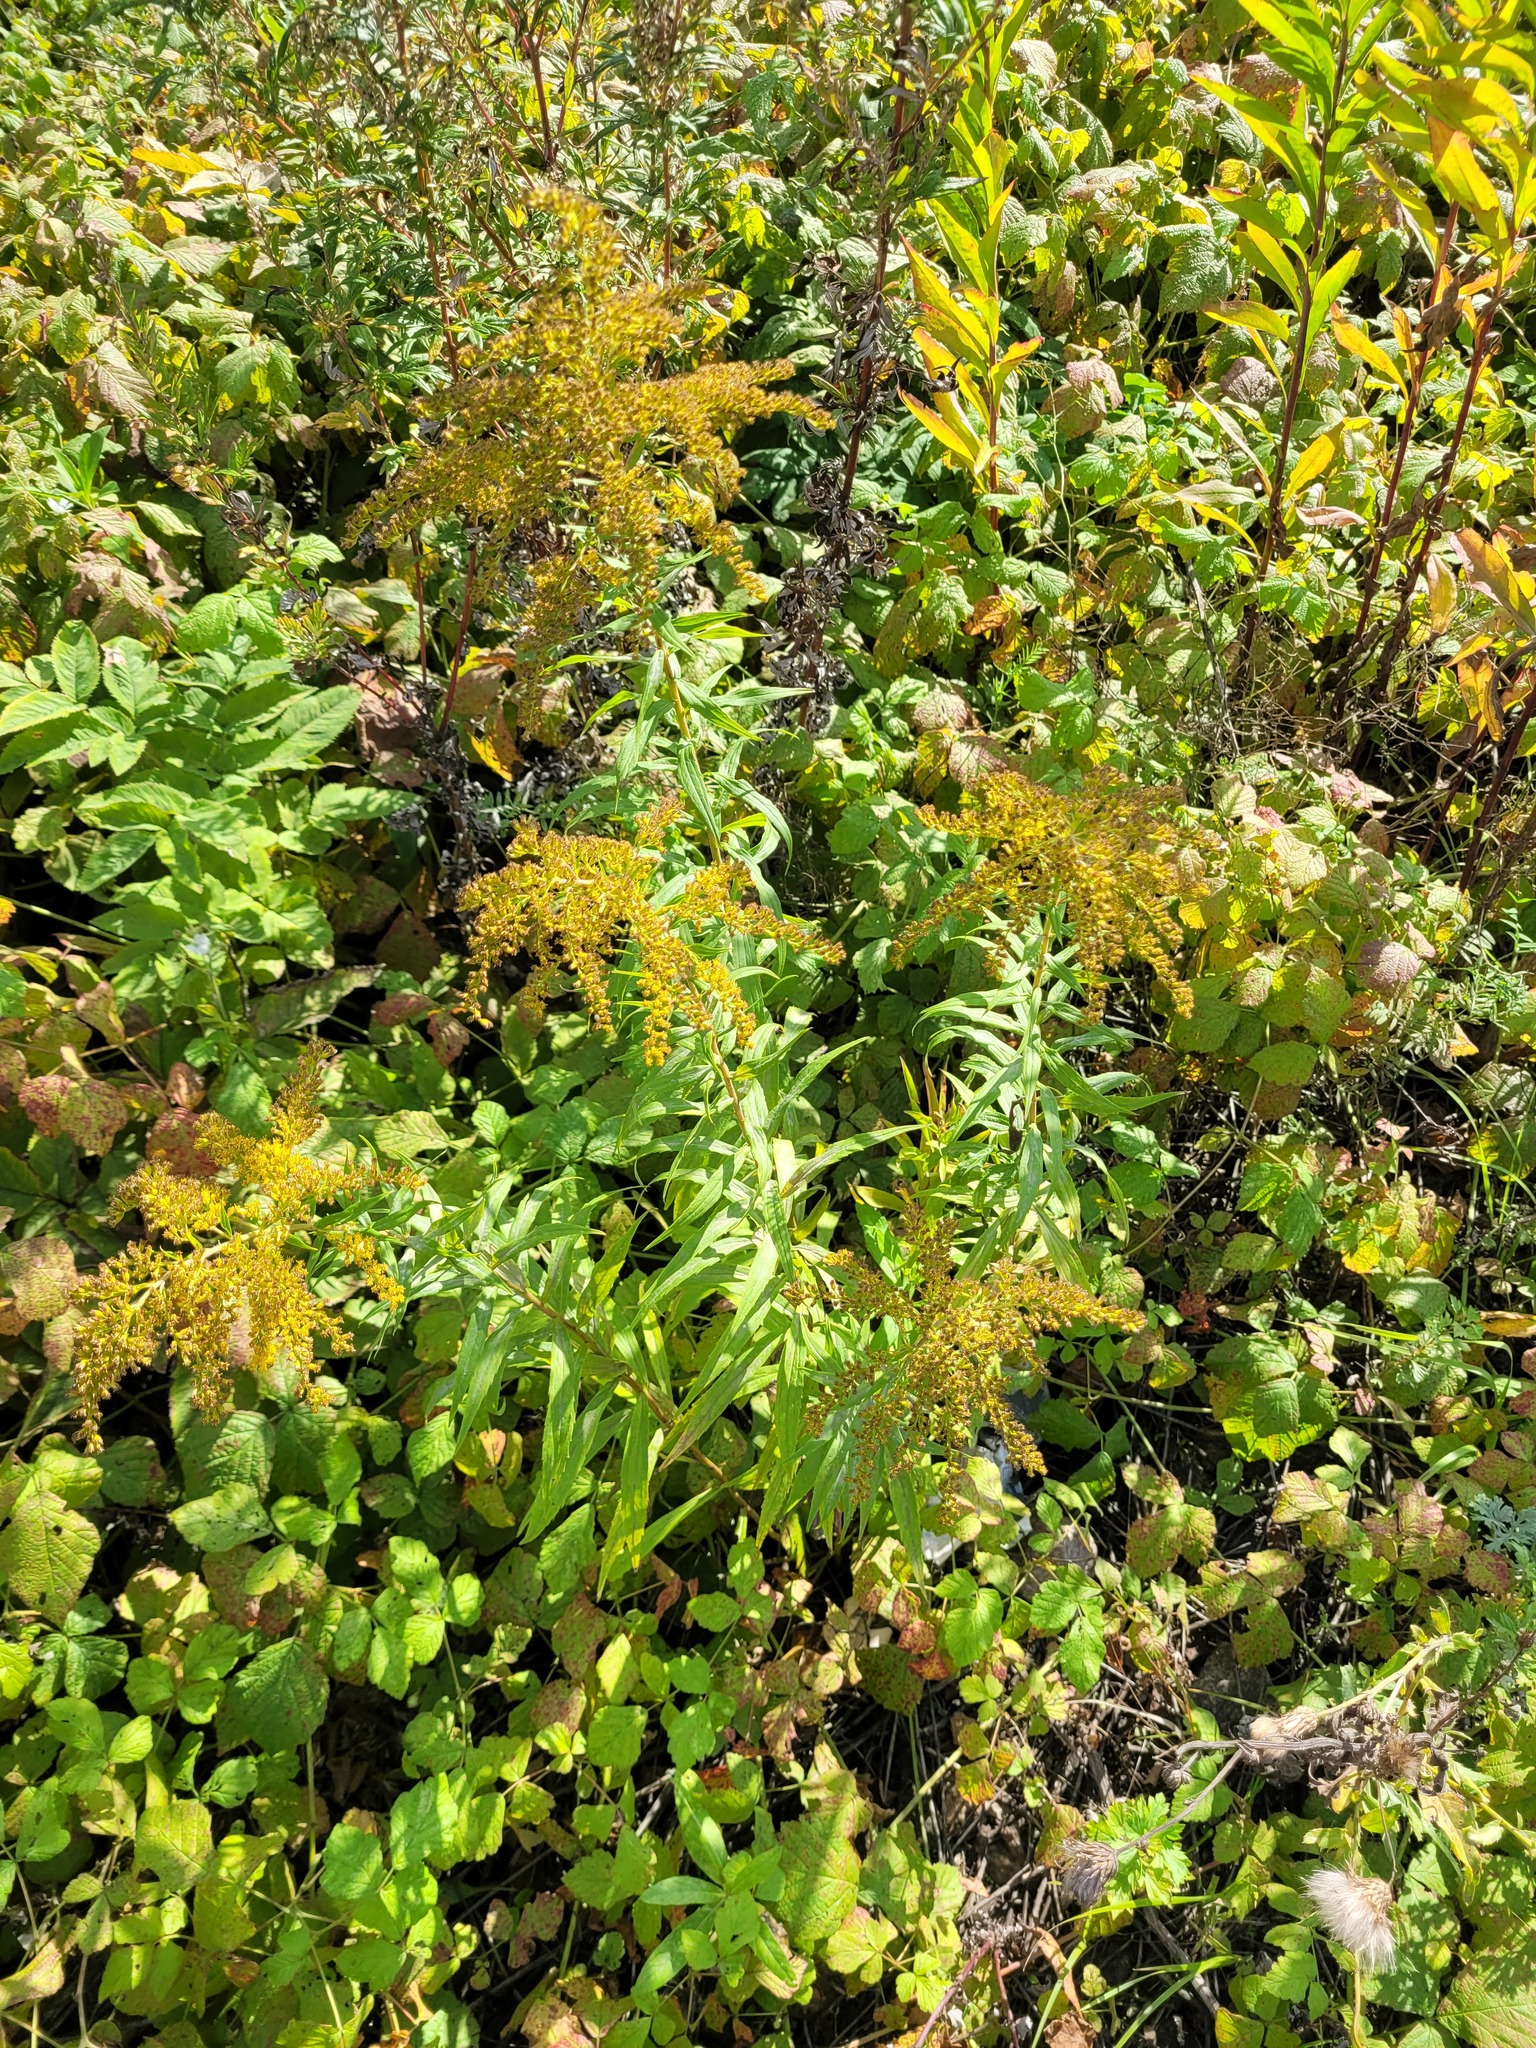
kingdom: Plantae
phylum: Tracheophyta
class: Magnoliopsida
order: Asterales
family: Asteraceae
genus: Solidago
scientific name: Solidago canadensis
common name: Canada goldenrod
